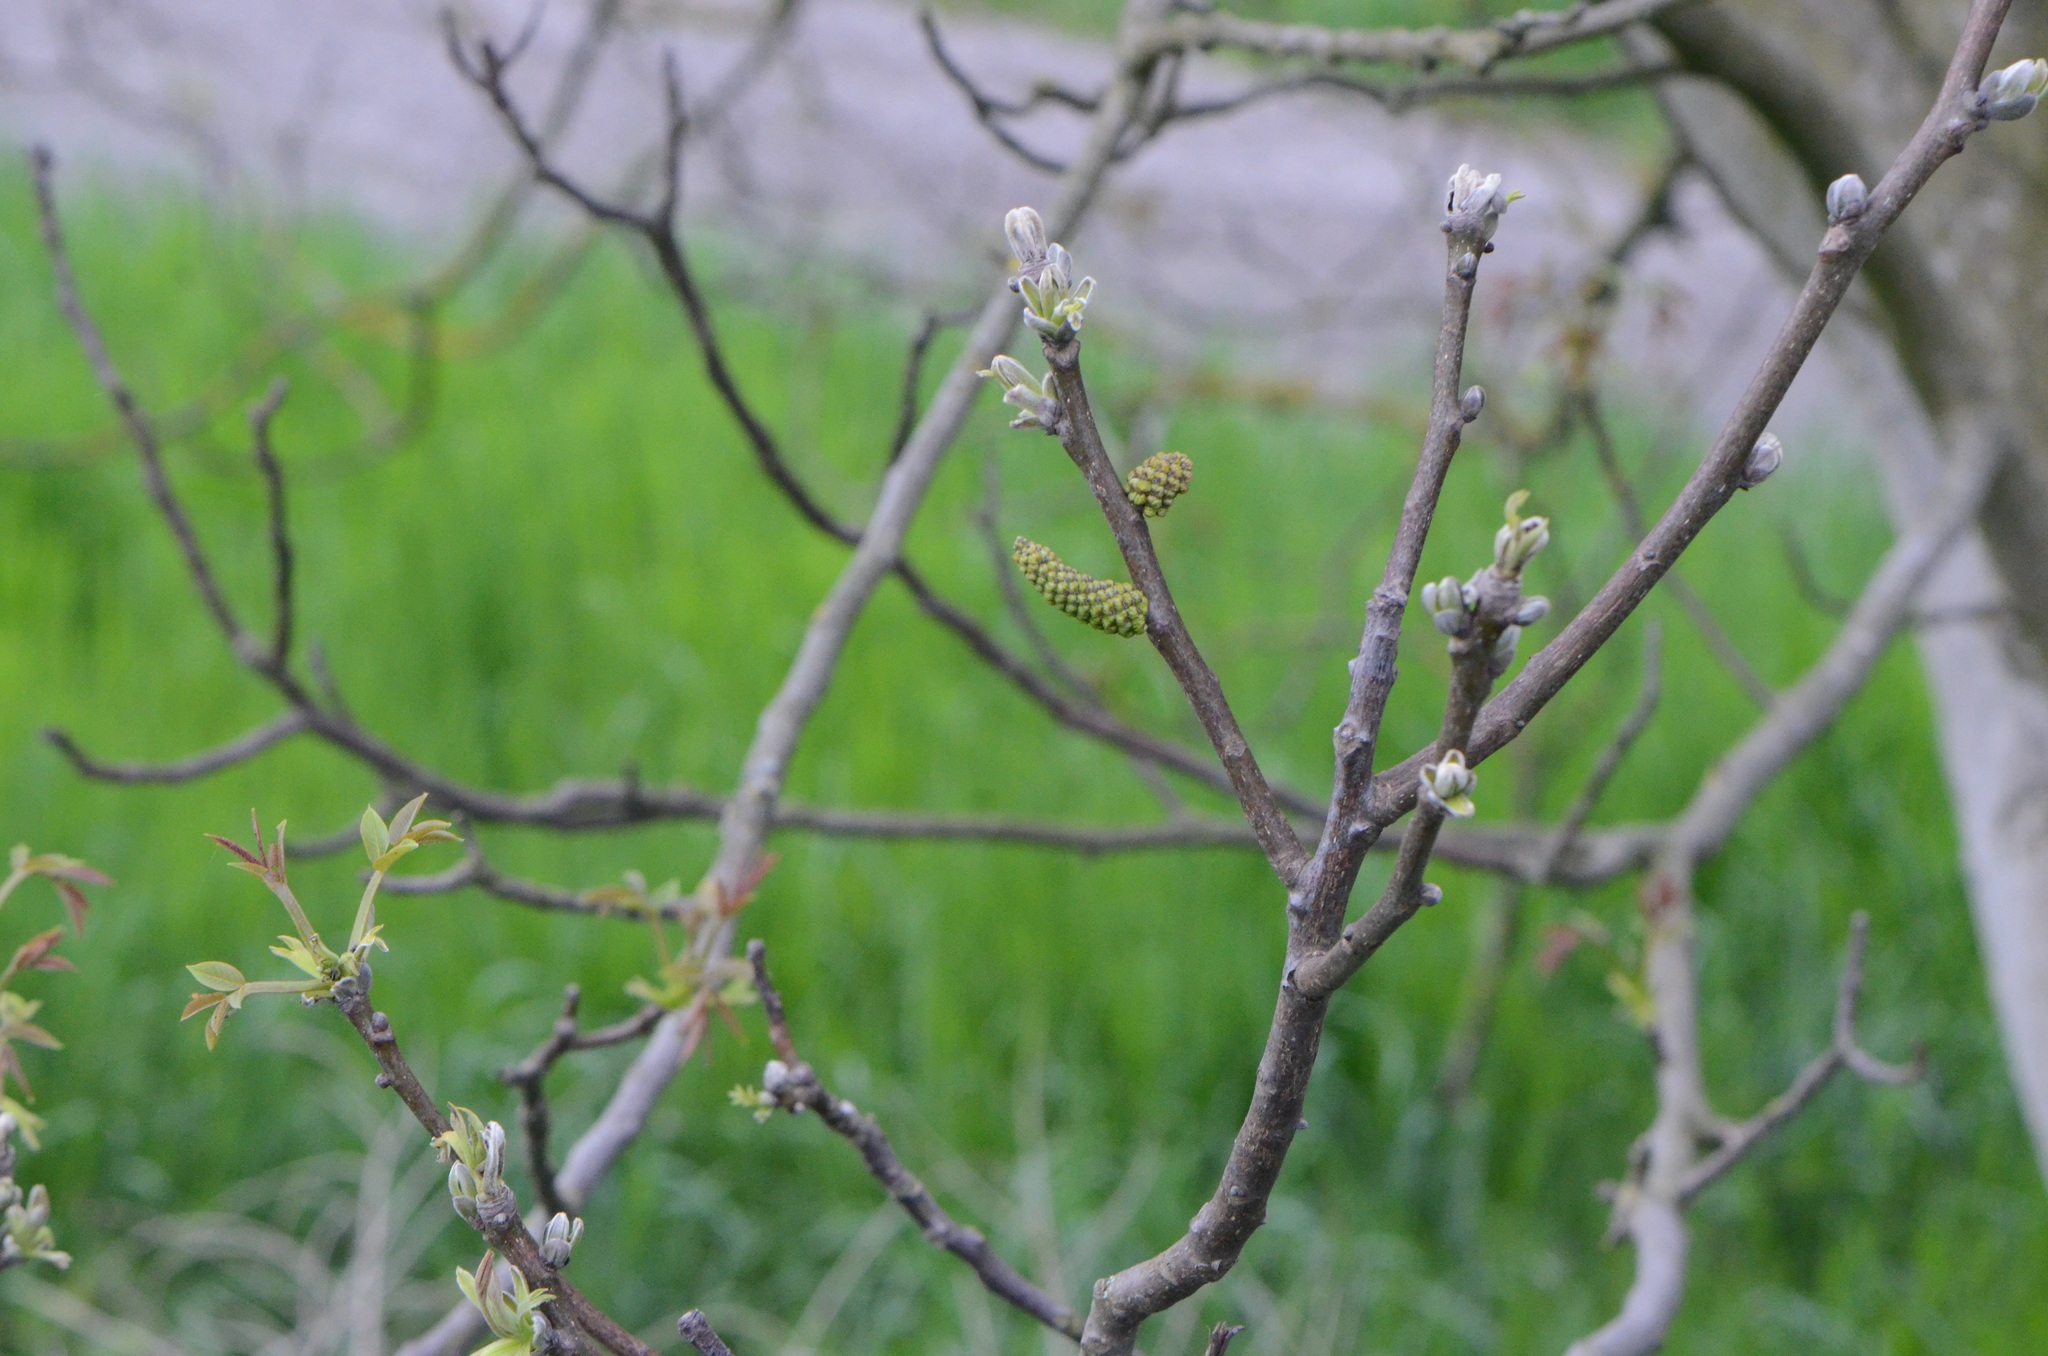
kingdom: Plantae
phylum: Tracheophyta
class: Magnoliopsida
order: Fagales
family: Juglandaceae
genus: Juglans
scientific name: Juglans regia
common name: Walnut
